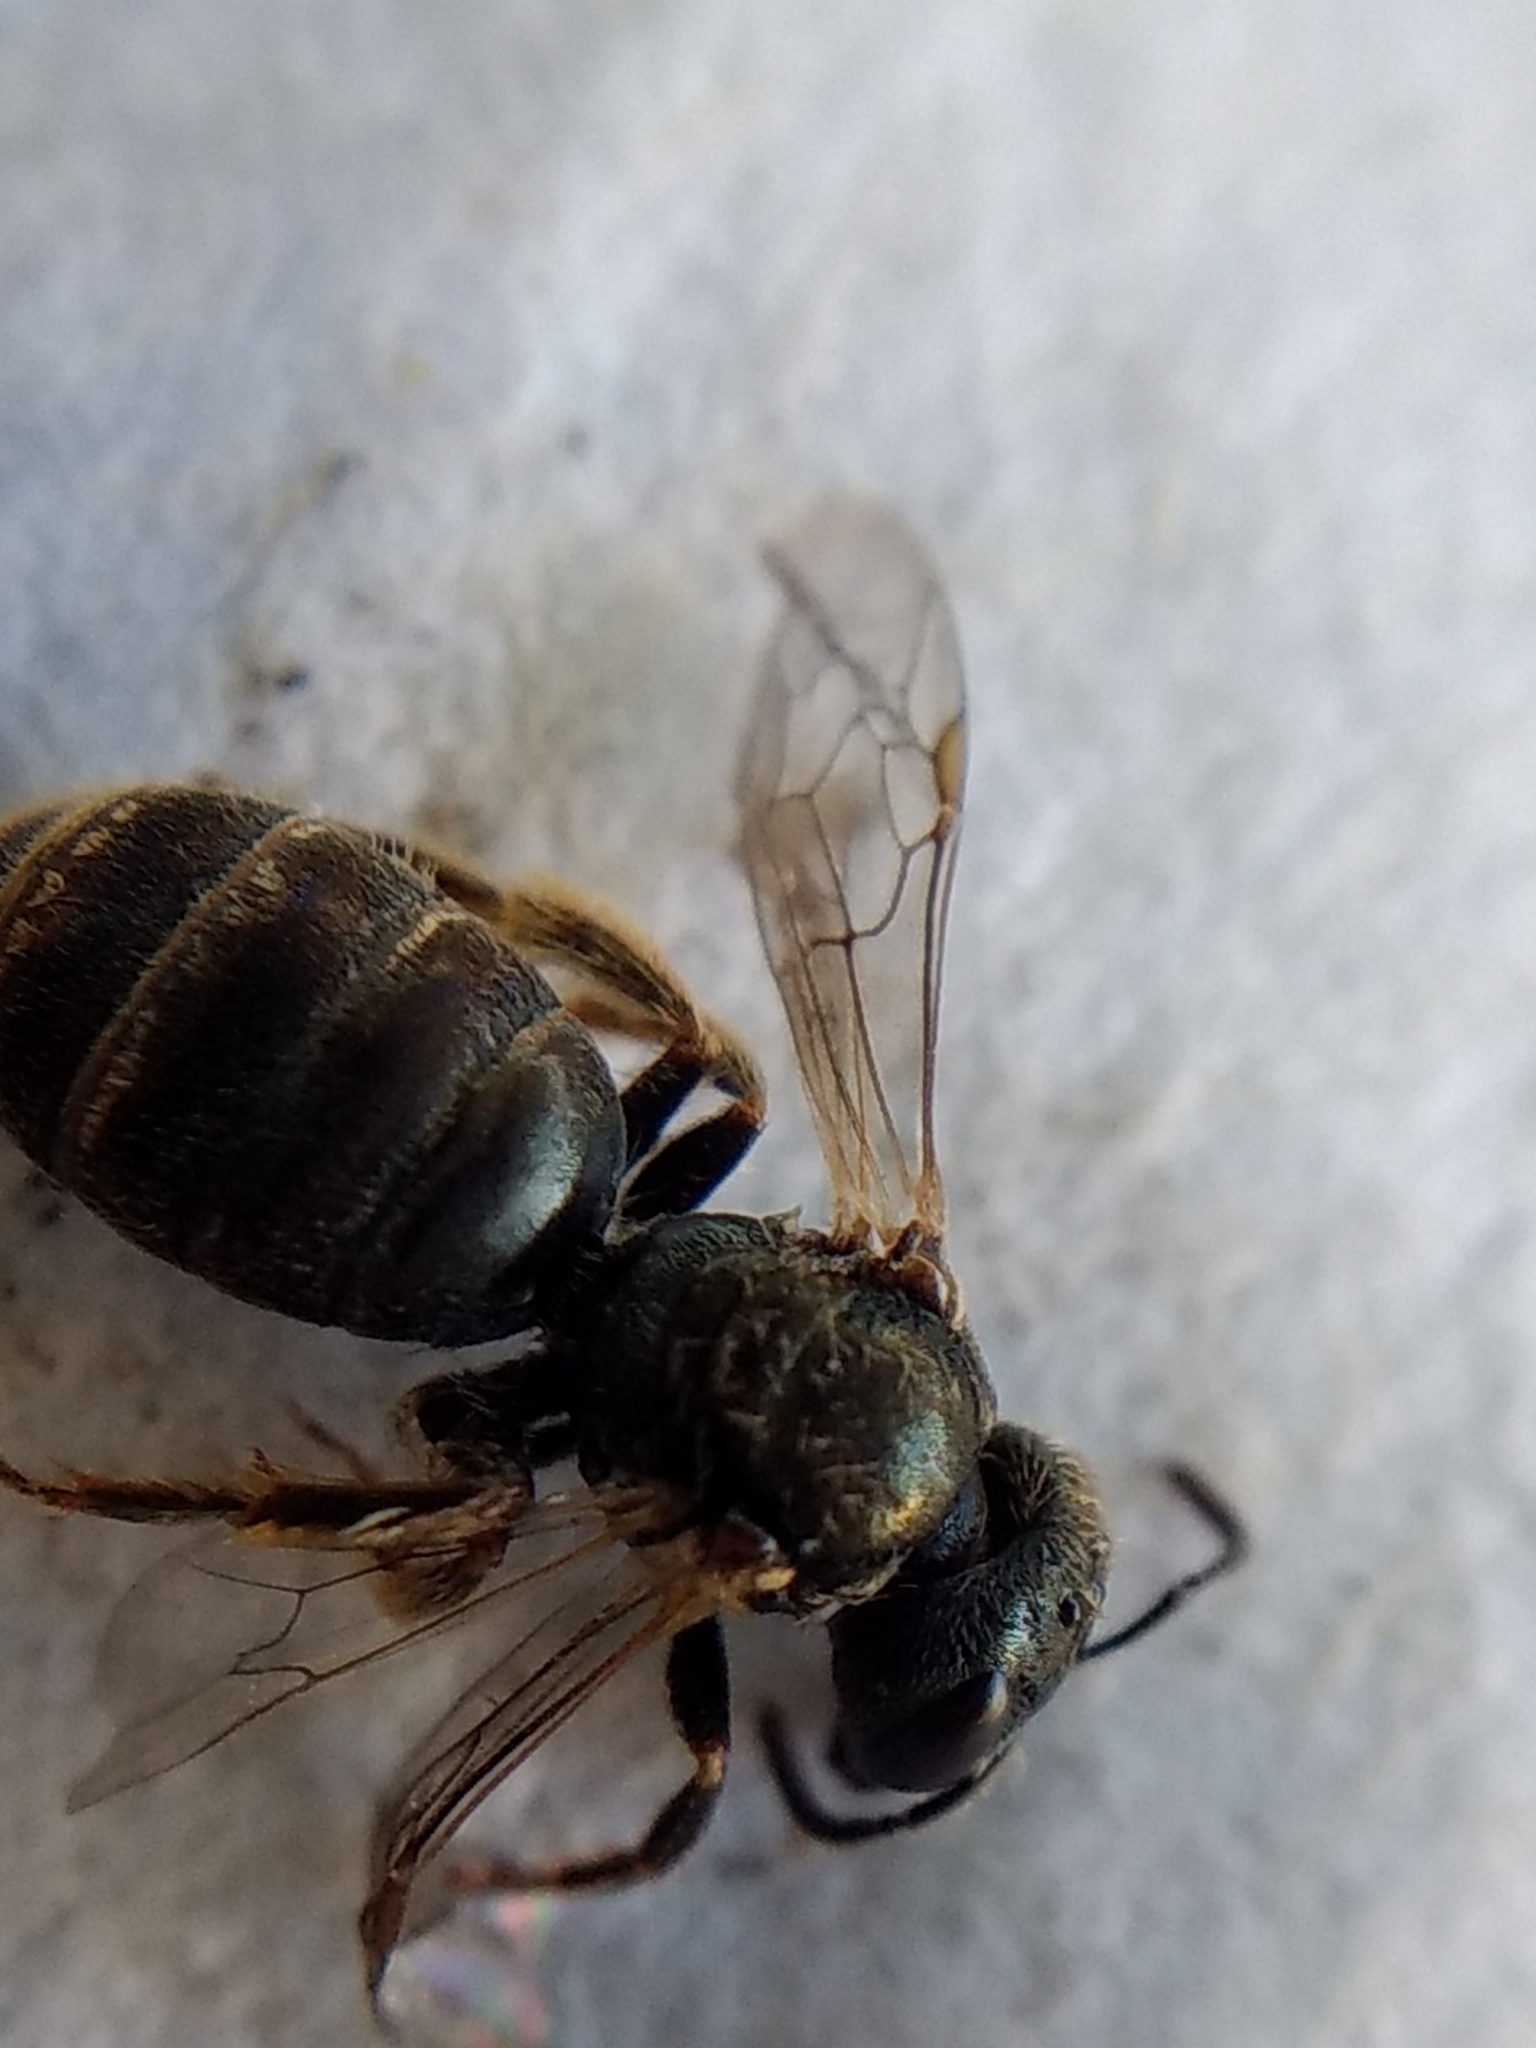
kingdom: Animalia
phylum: Arthropoda
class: Insecta
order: Hymenoptera
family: Halictidae
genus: Halictus
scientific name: Halictus tripartitus
